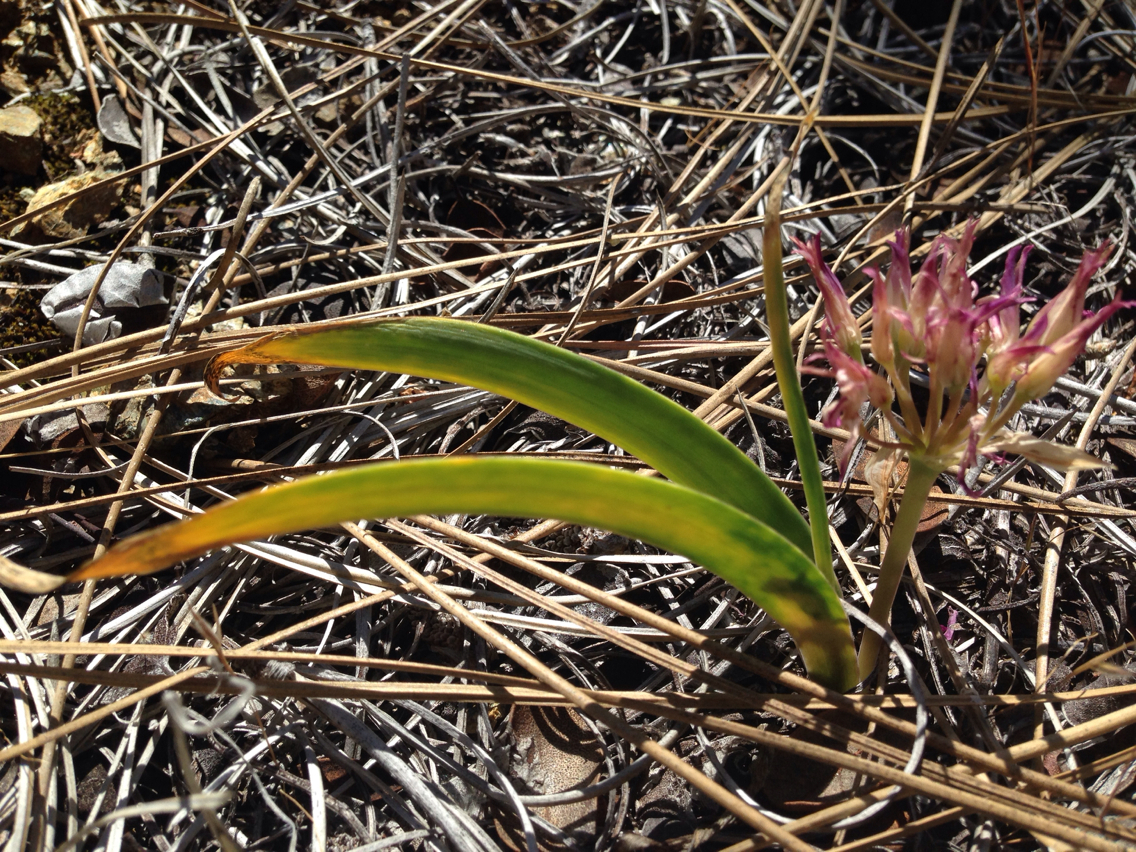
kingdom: Plantae
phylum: Tracheophyta
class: Liliopsida
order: Asparagales
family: Amaryllidaceae
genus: Allium
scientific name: Allium falcifolium
